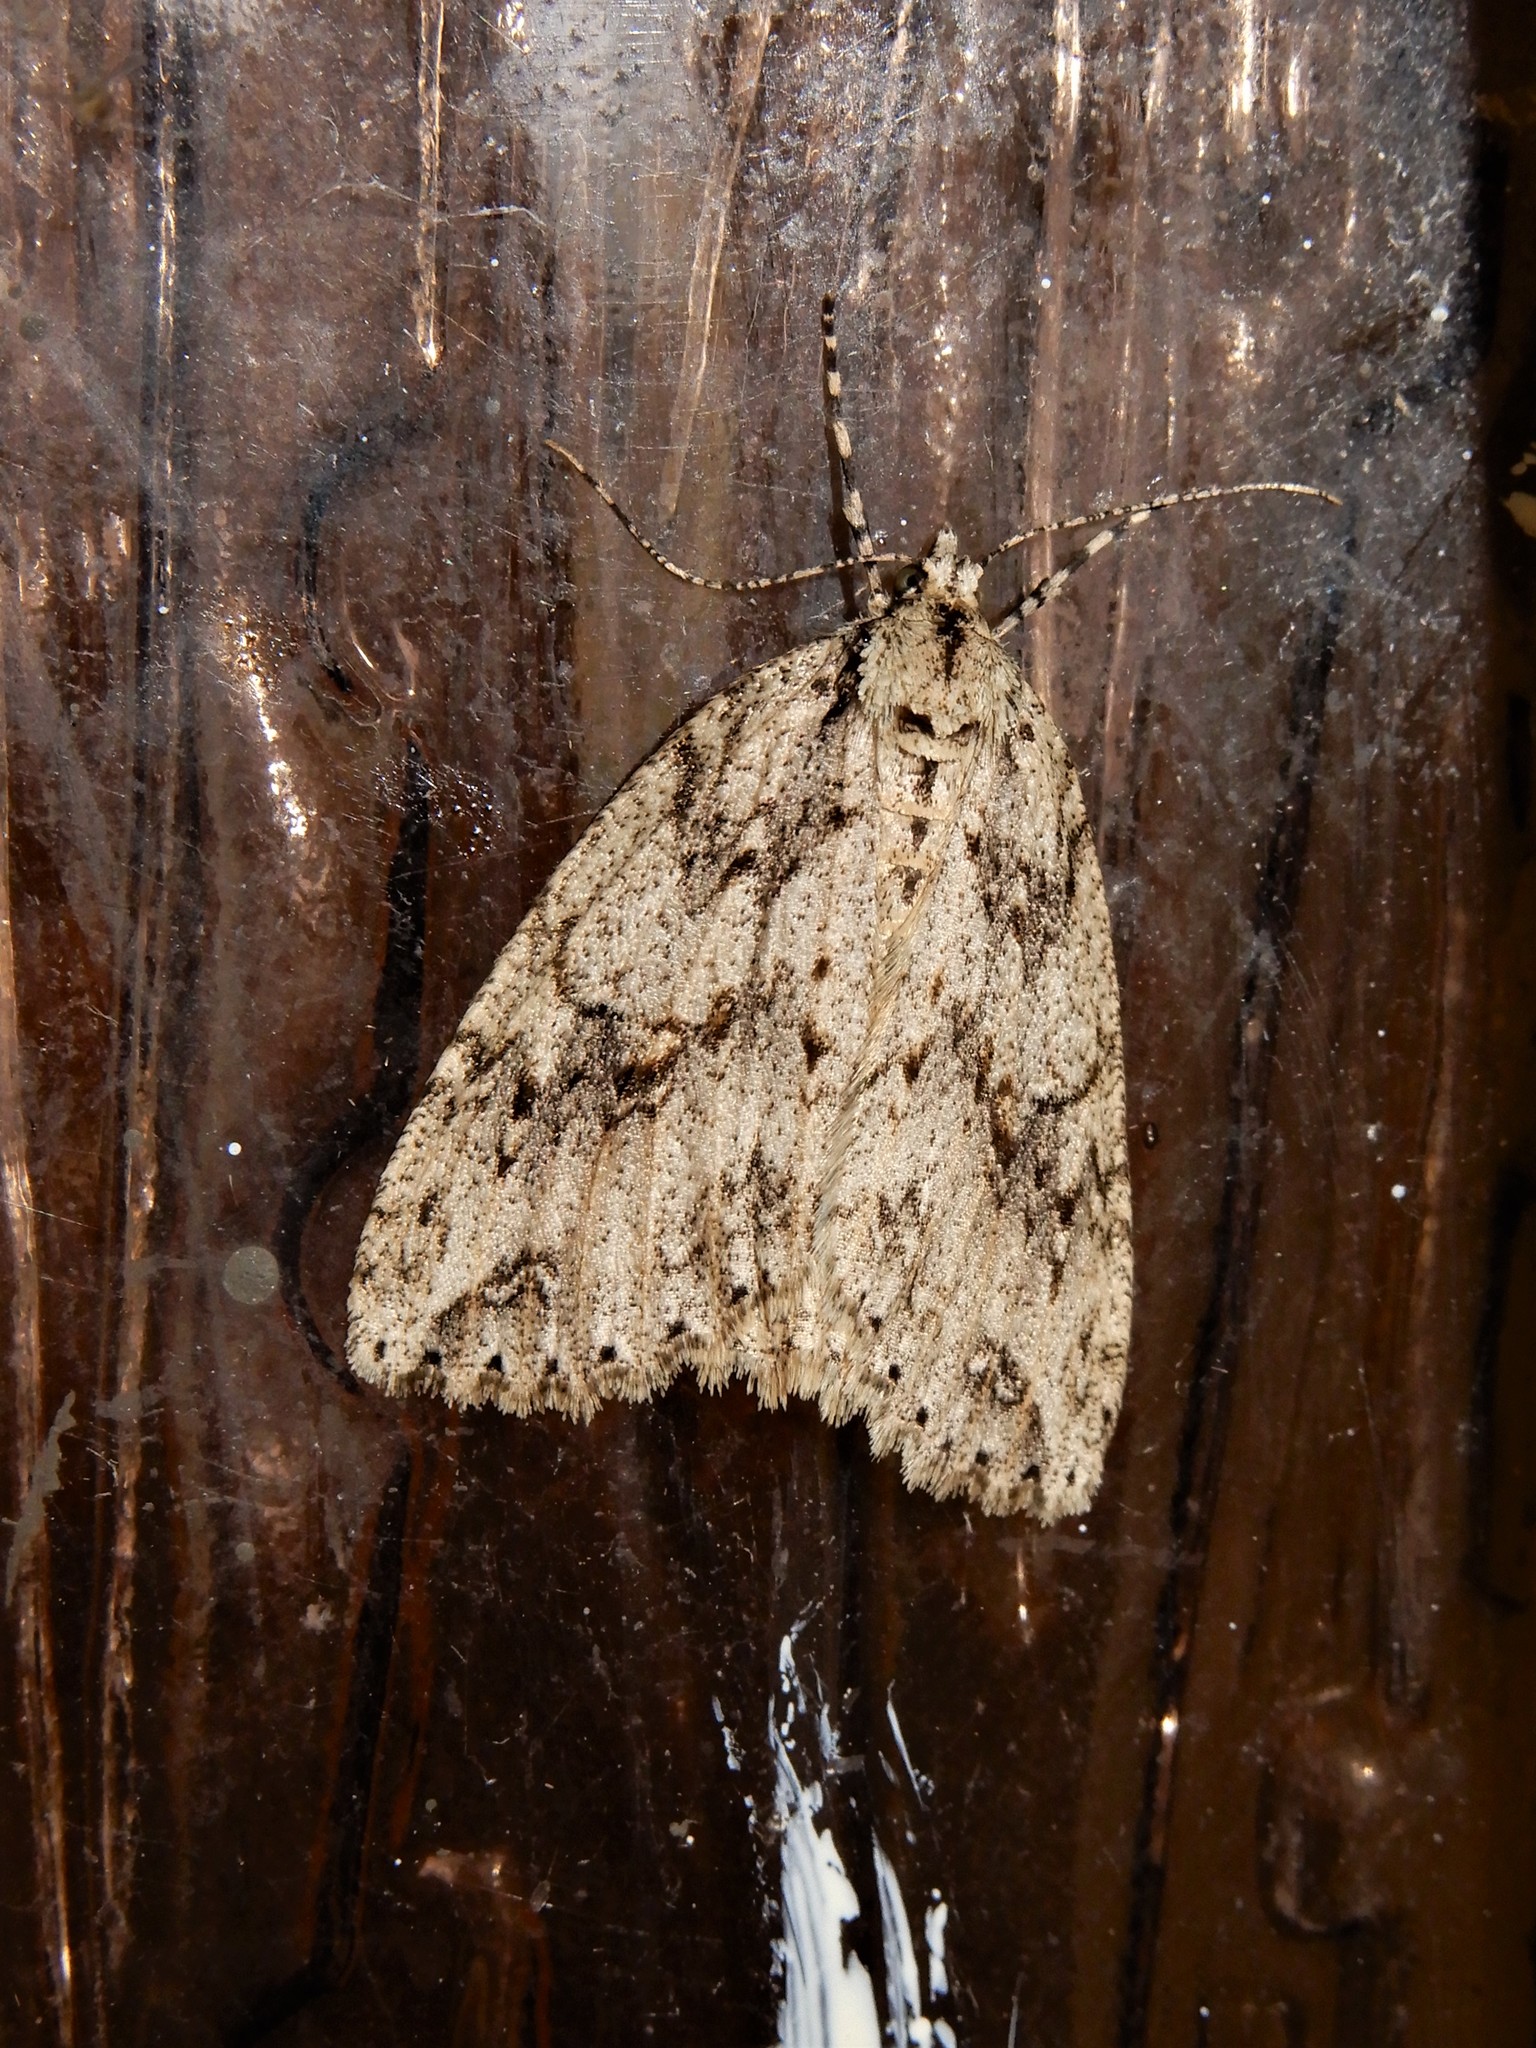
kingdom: Animalia
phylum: Arthropoda
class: Insecta
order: Lepidoptera
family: Geometridae
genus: Pseudocoremia
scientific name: Pseudocoremia rudisata
